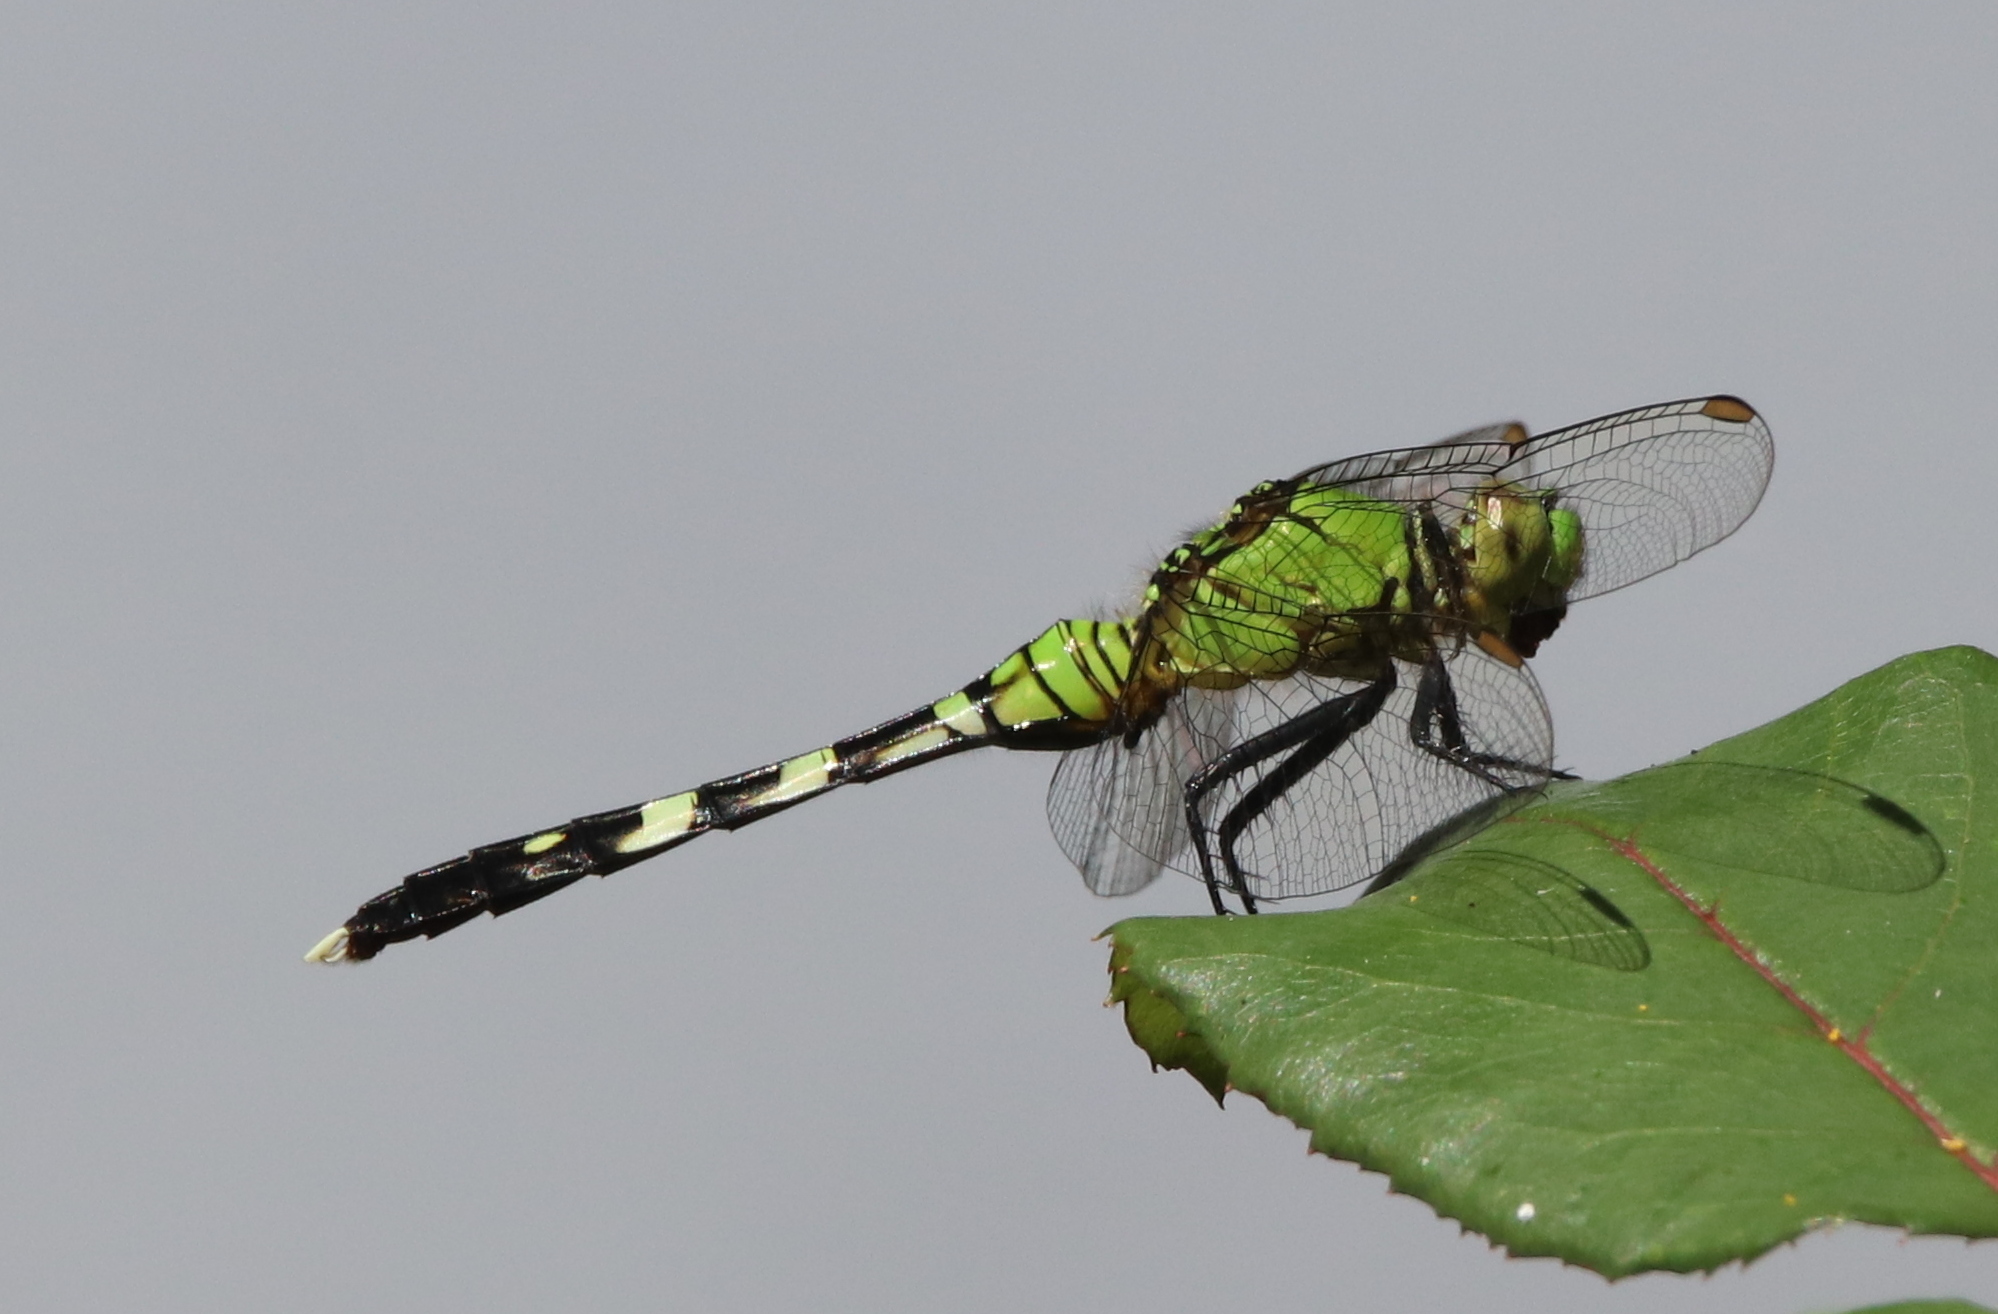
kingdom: Animalia
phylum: Arthropoda
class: Insecta
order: Odonata
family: Libellulidae
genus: Erythemis
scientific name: Erythemis simplicicollis
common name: Eastern pondhawk
